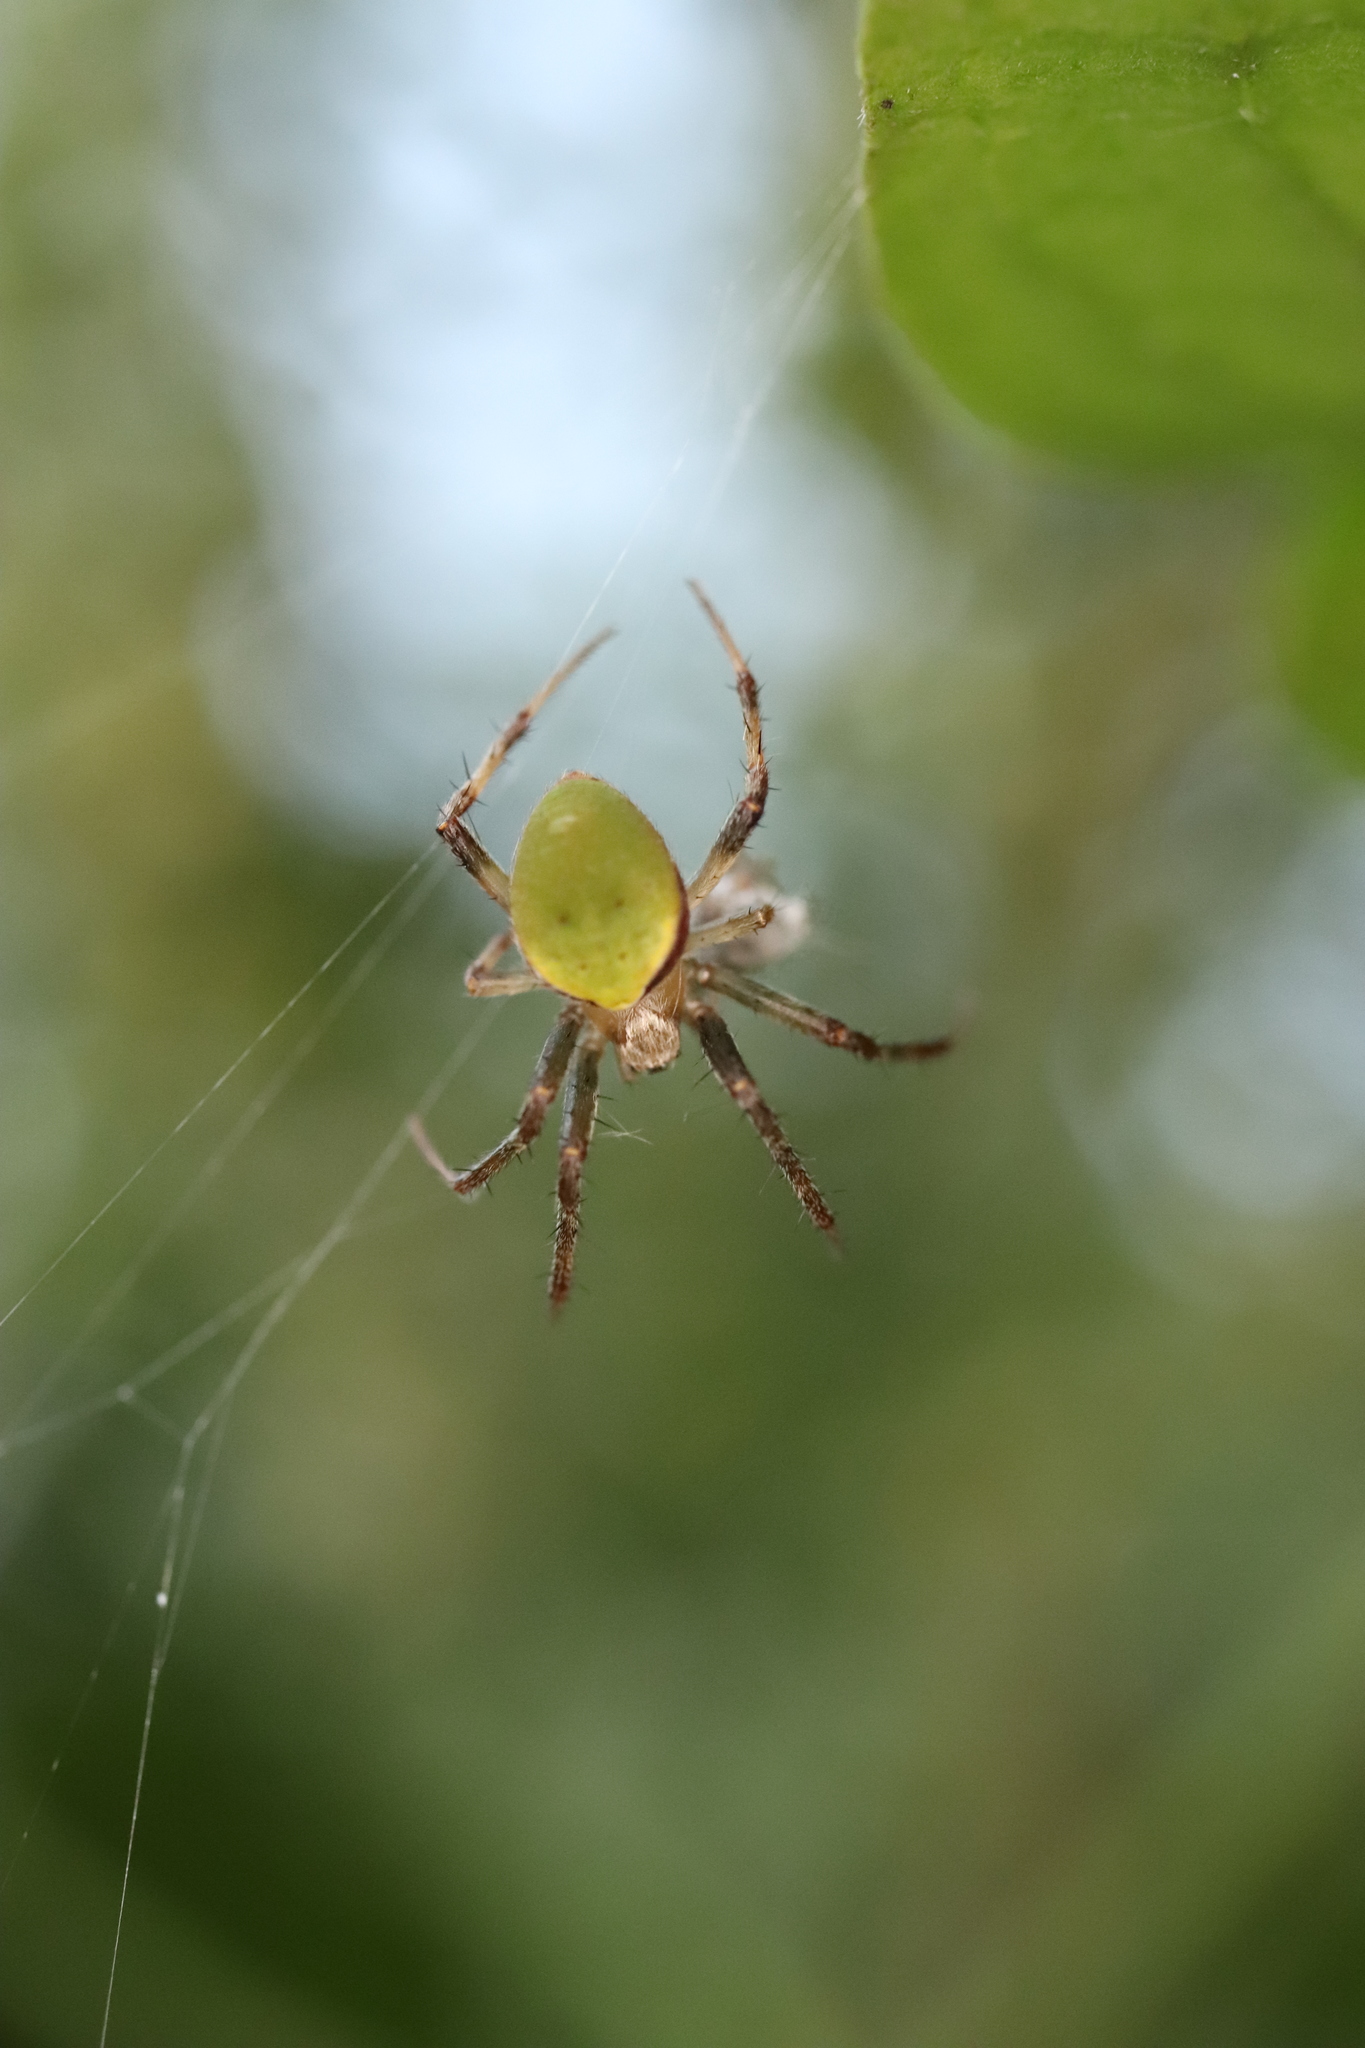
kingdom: Animalia
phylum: Arthropoda
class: Arachnida
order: Araneae
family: Araneidae
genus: Neoscona
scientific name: Neoscona mellotteei
